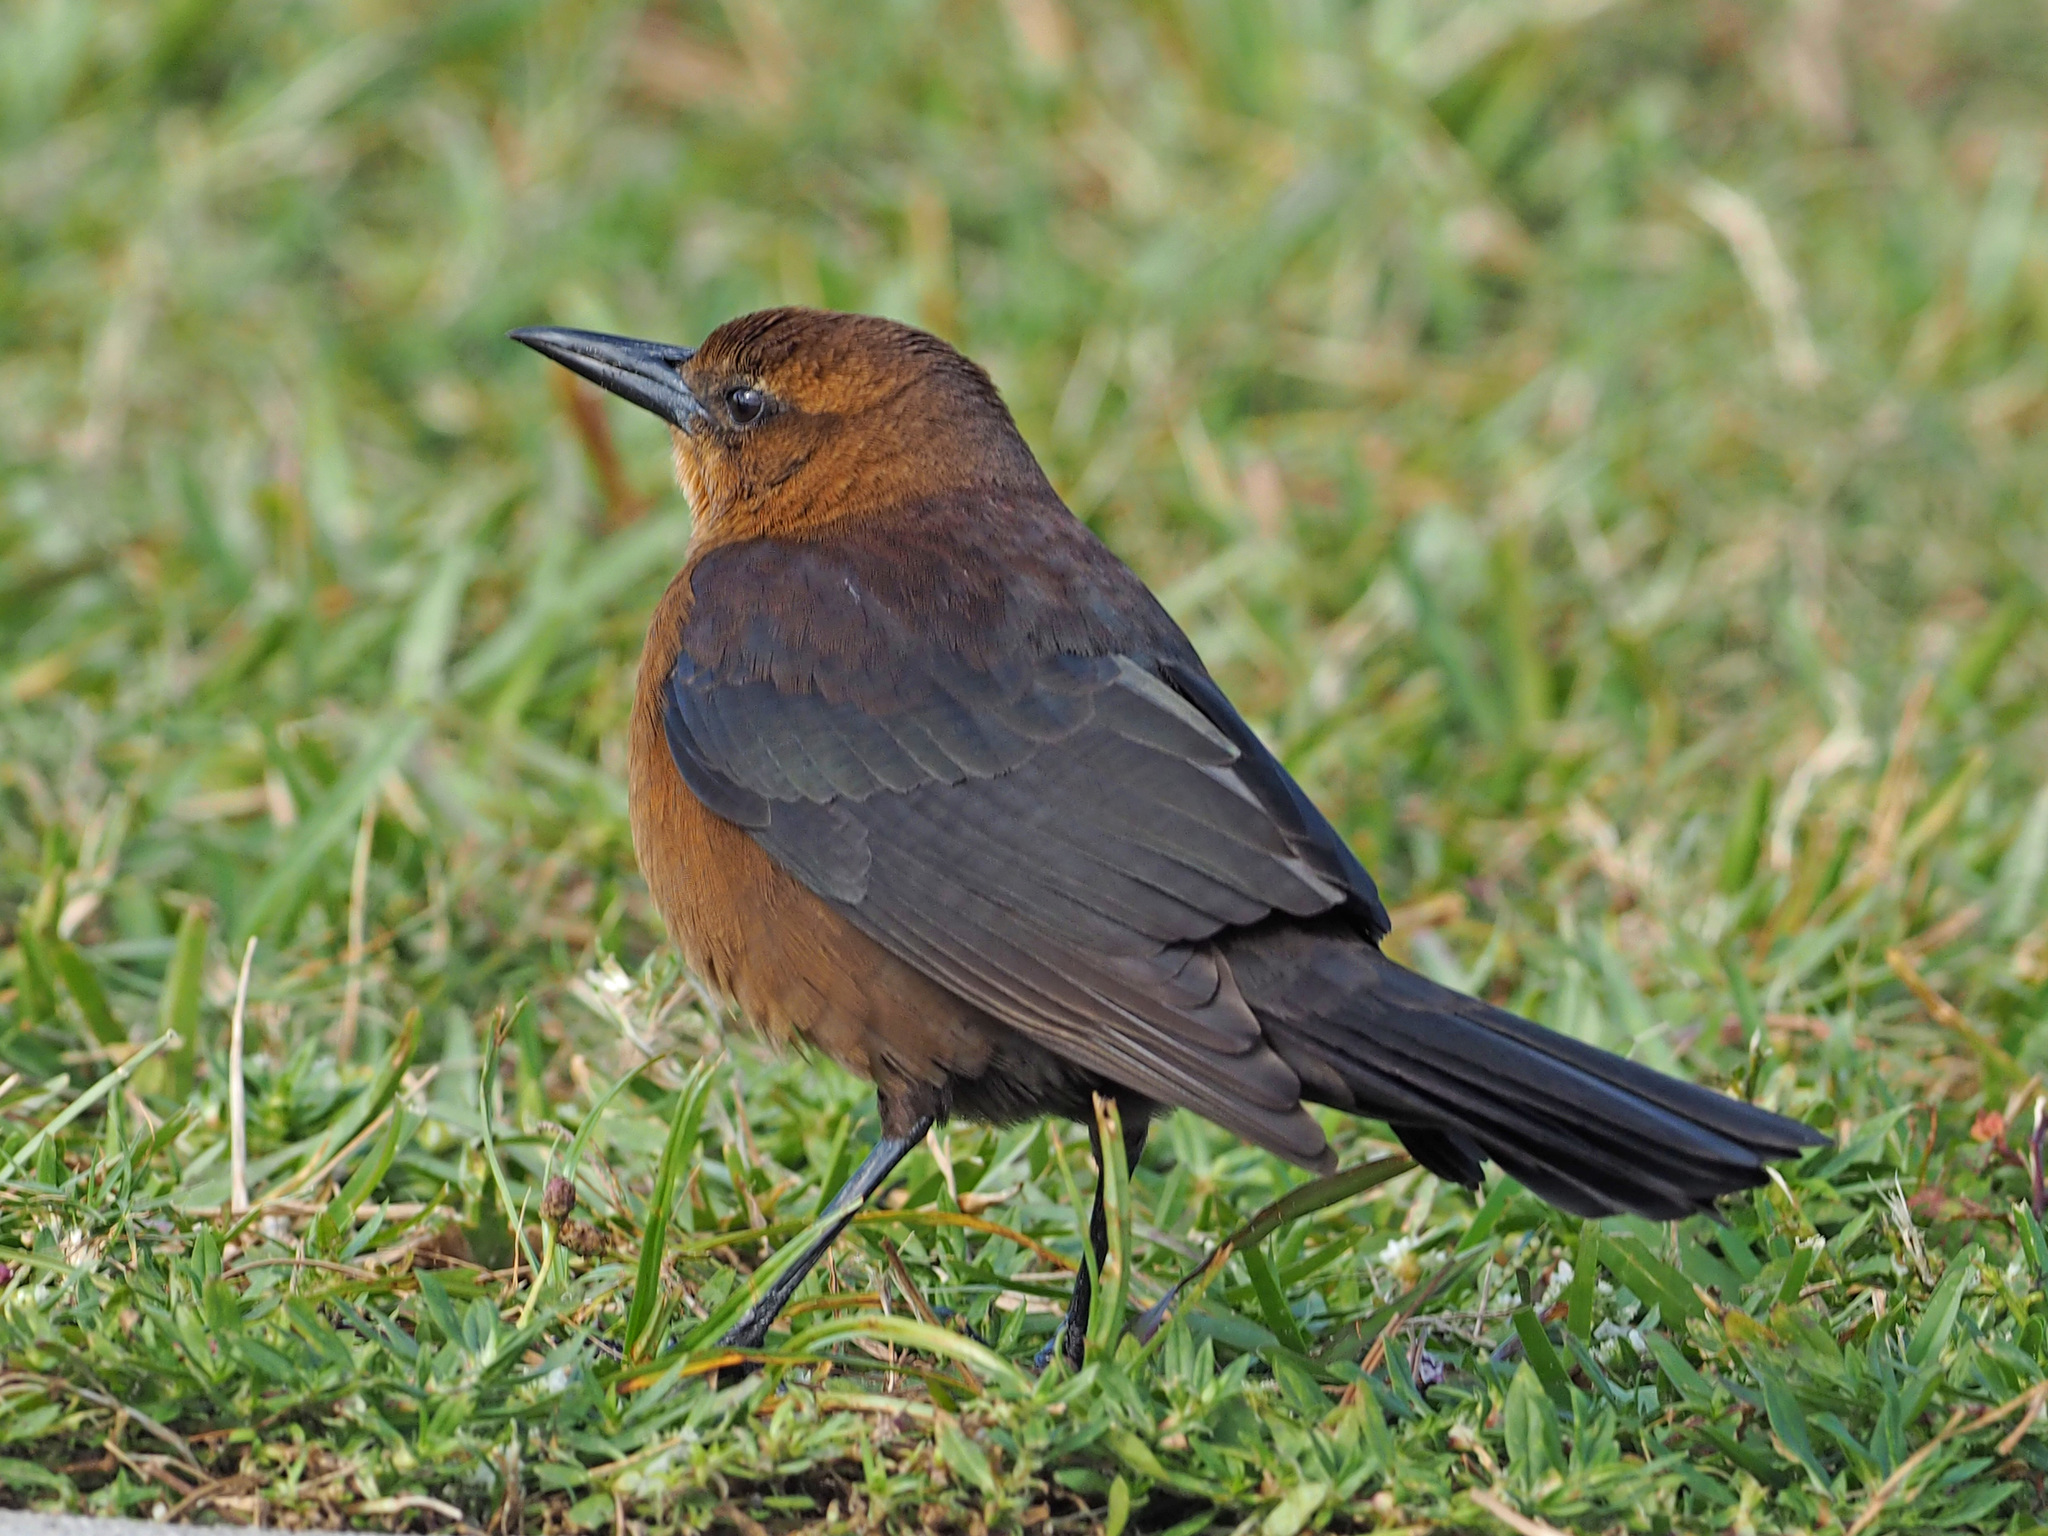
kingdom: Animalia
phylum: Chordata
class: Aves
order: Passeriformes
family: Icteridae
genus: Quiscalus
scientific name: Quiscalus major
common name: Boat-tailed grackle
